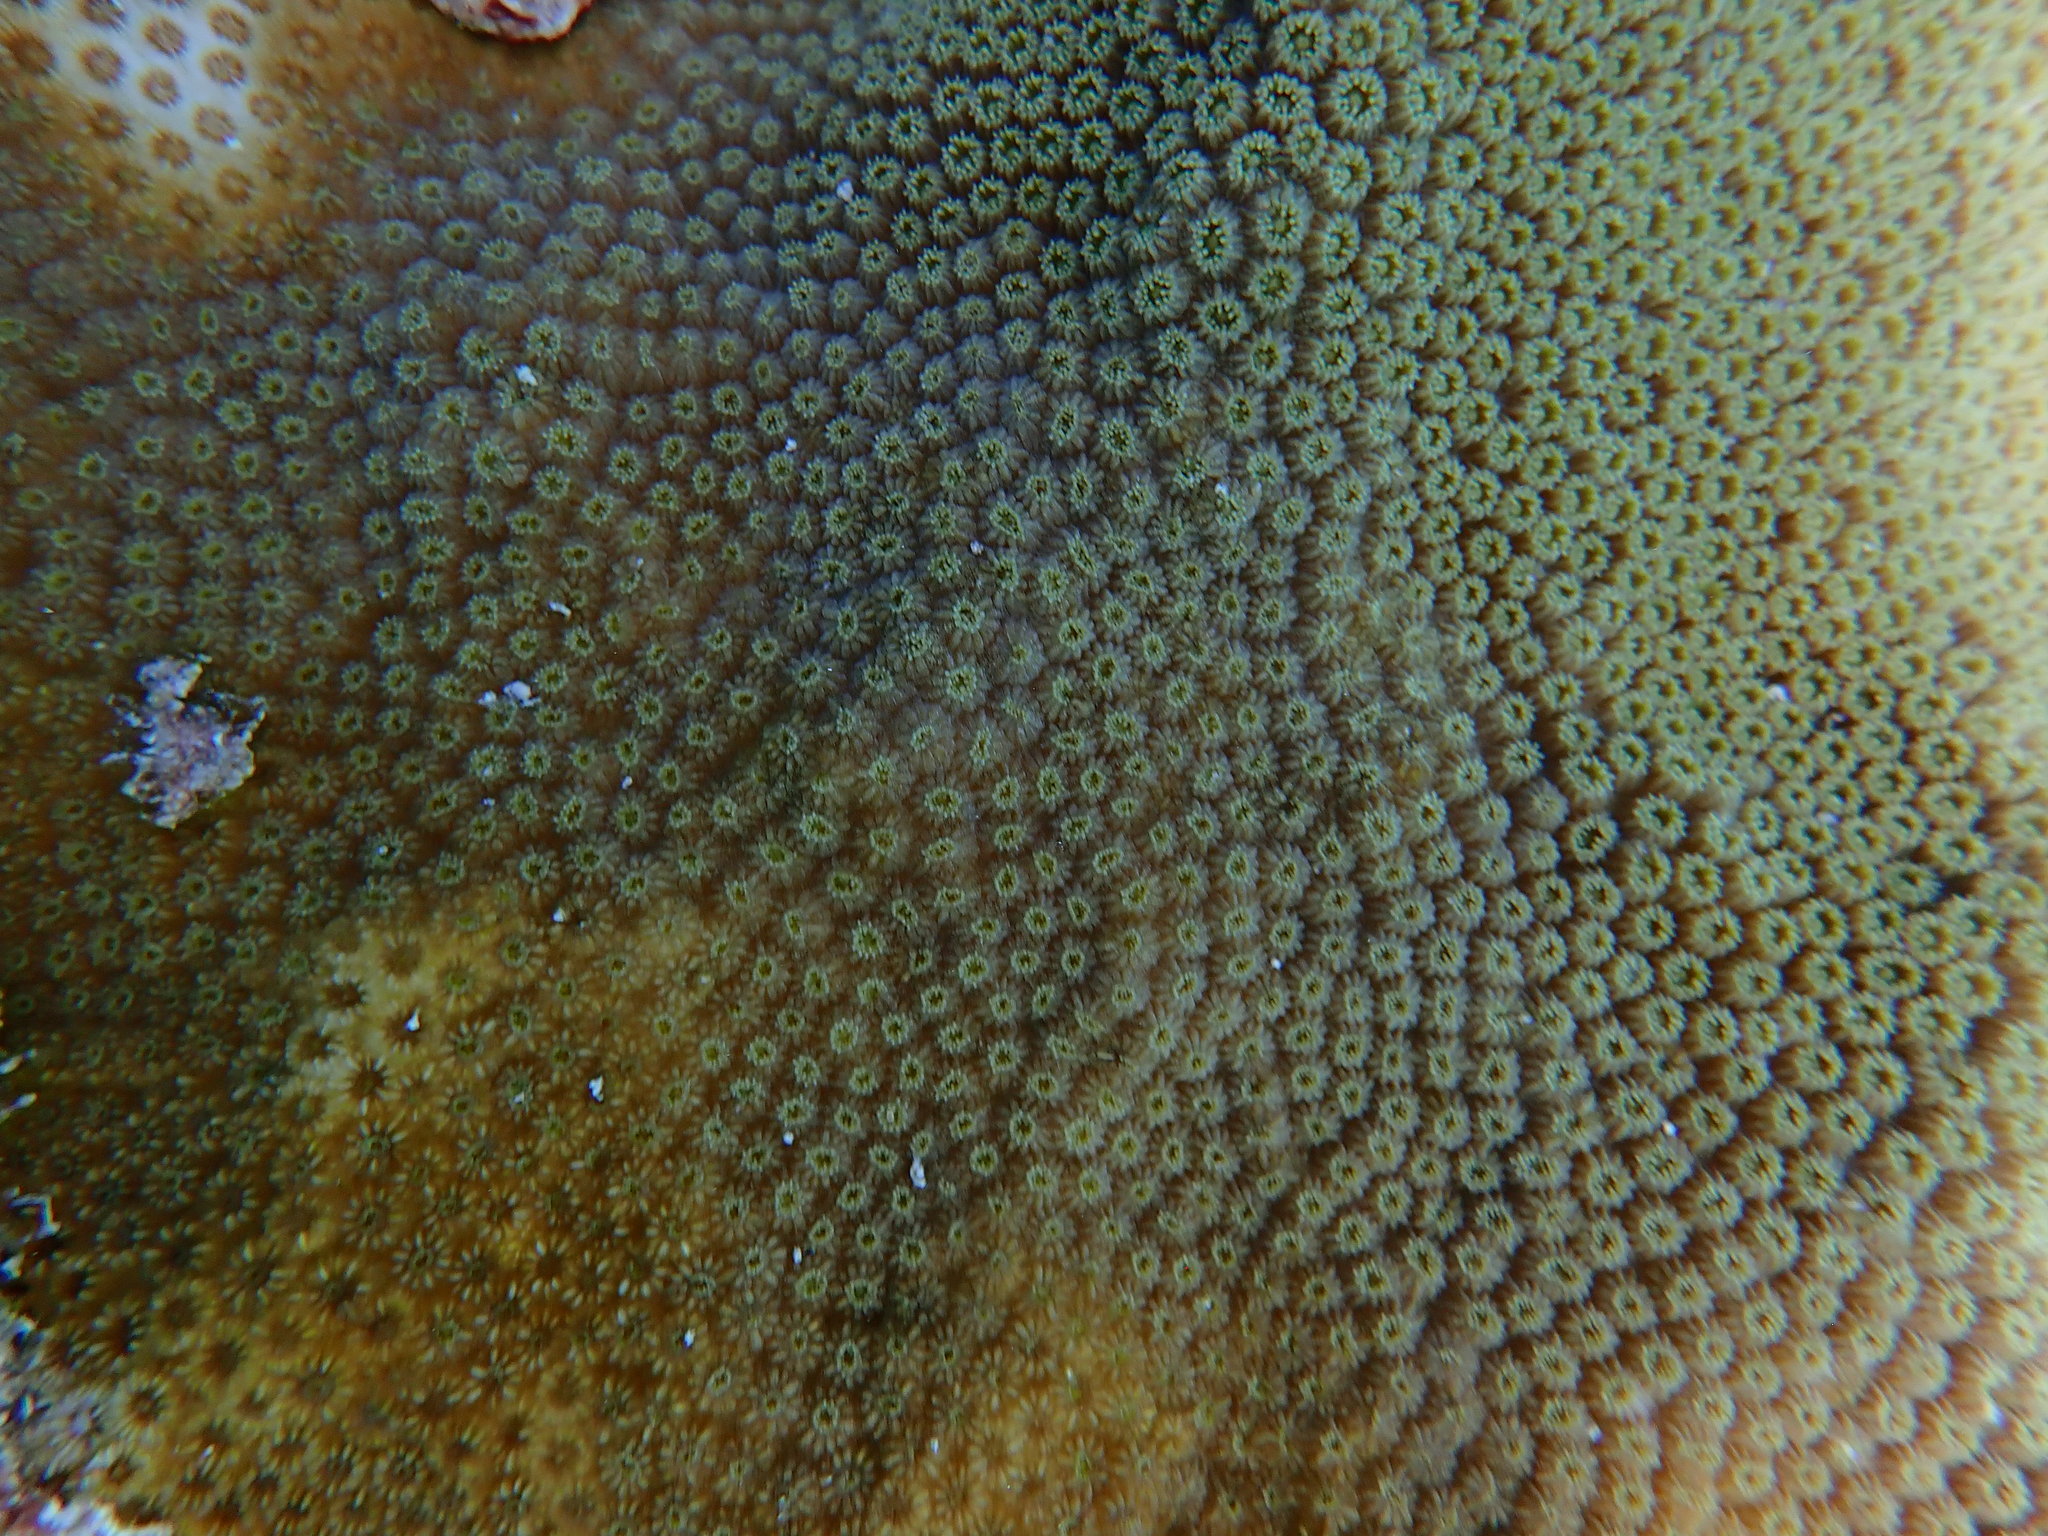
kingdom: Animalia
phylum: Cnidaria
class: Anthozoa
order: Scleractinia
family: Merulinidae
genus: Orbicella
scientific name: Orbicella faveolata
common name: Mountainous star coral
